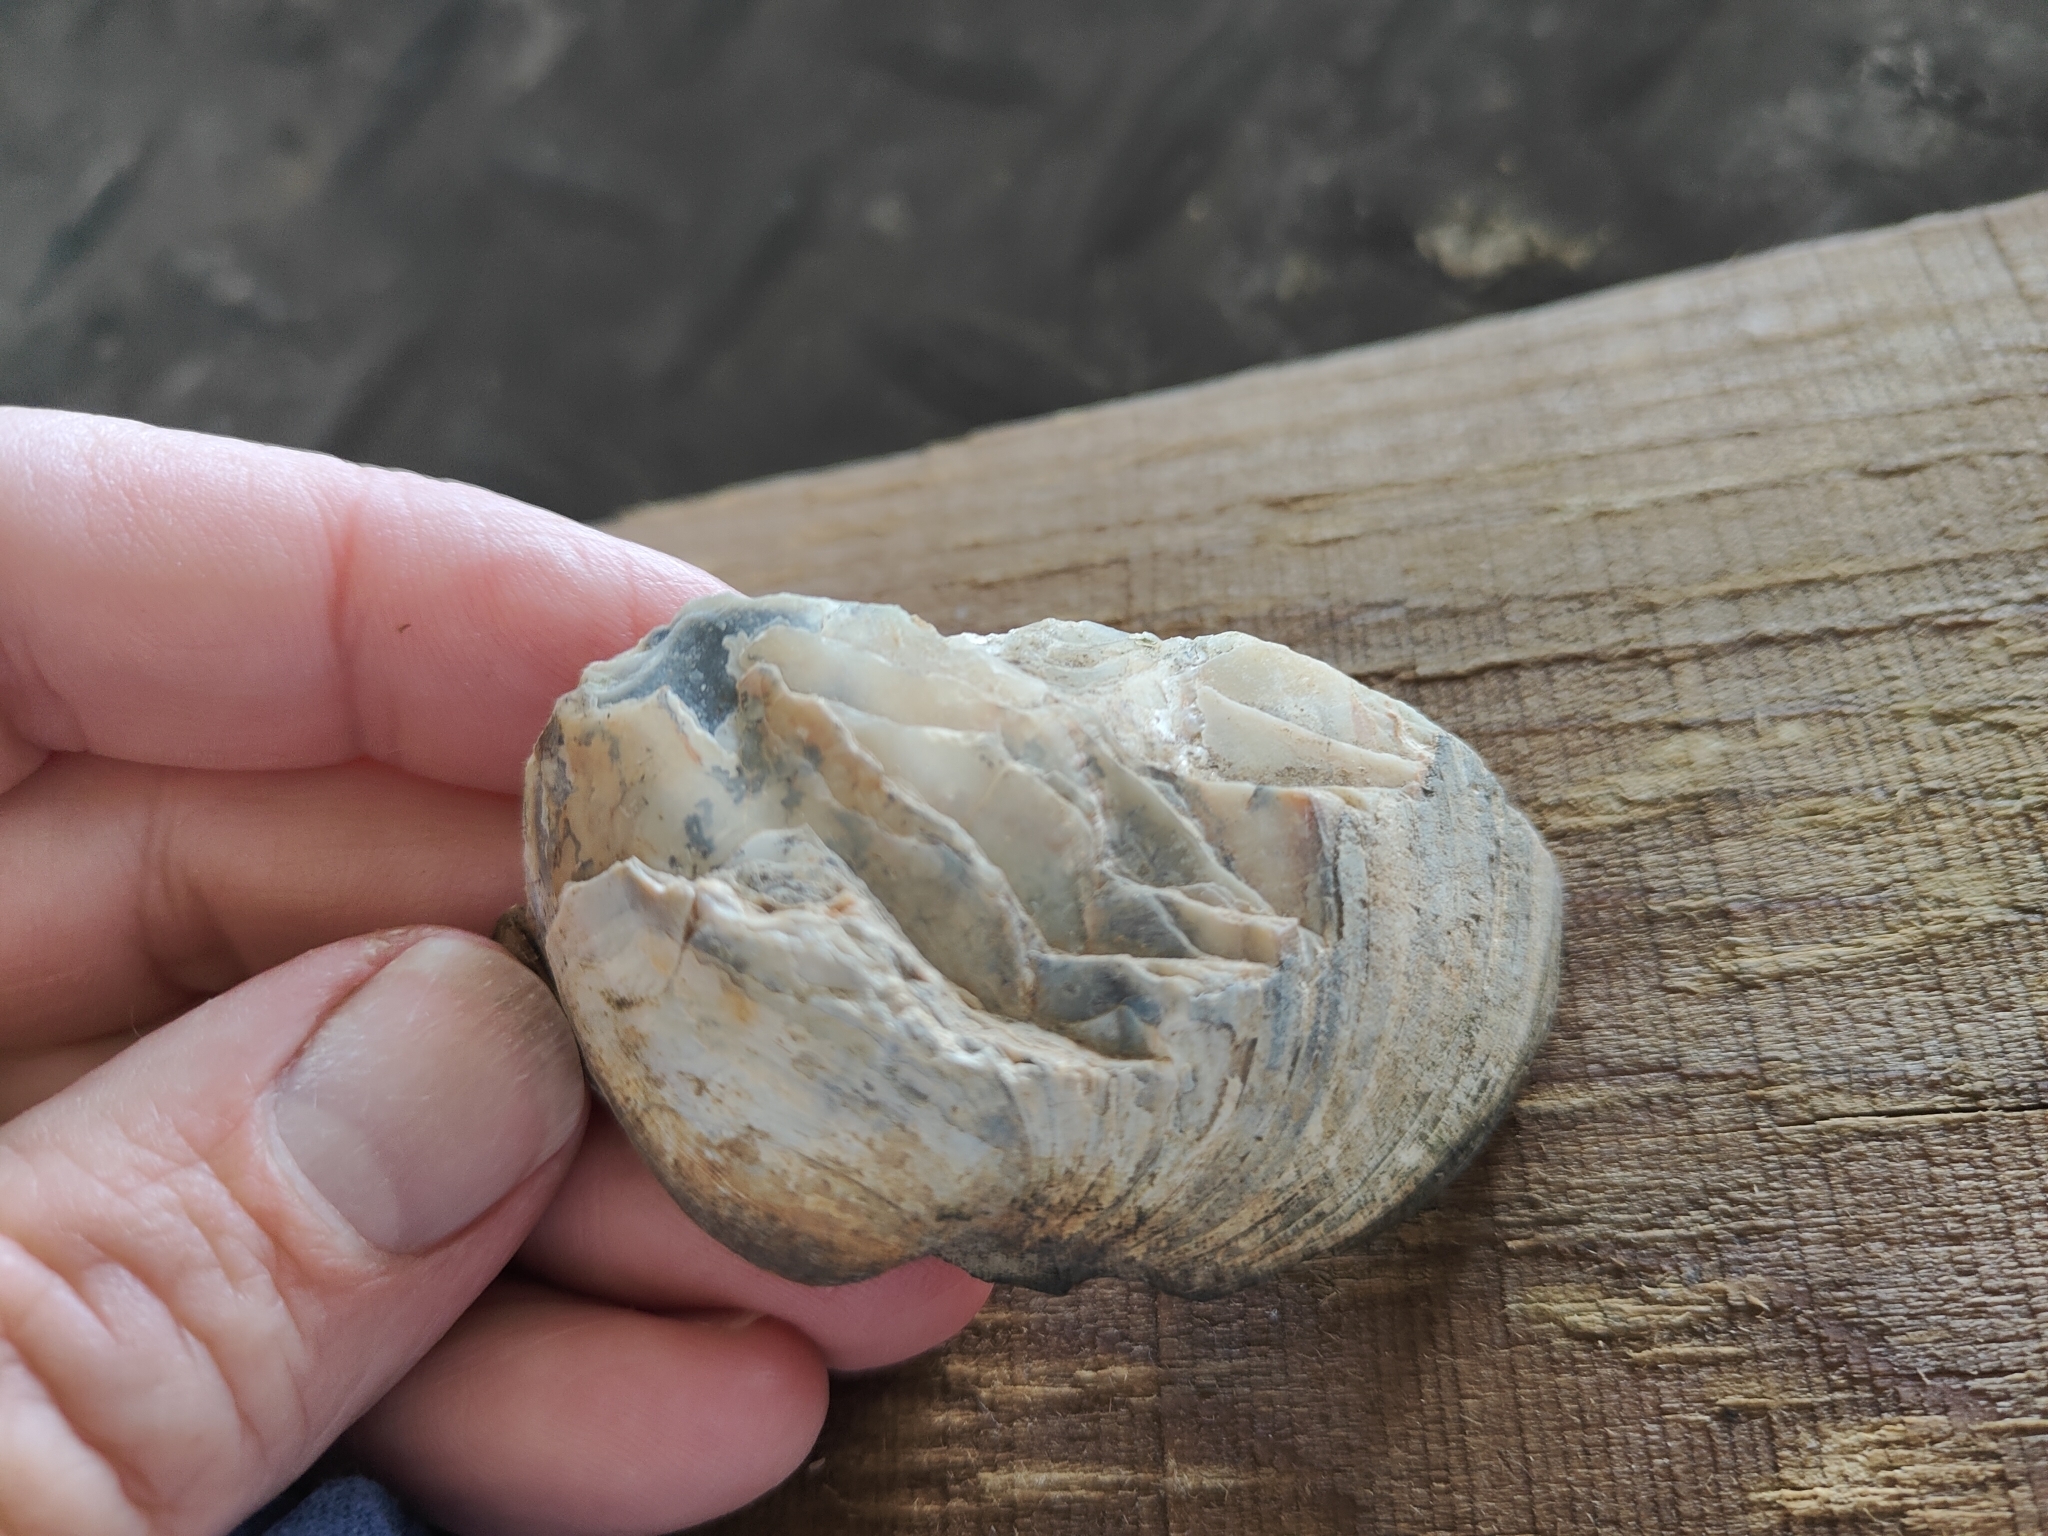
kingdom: Animalia
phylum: Mollusca
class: Bivalvia
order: Unionida
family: Unionidae
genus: Amblema
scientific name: Amblema plicata
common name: Threeridge
